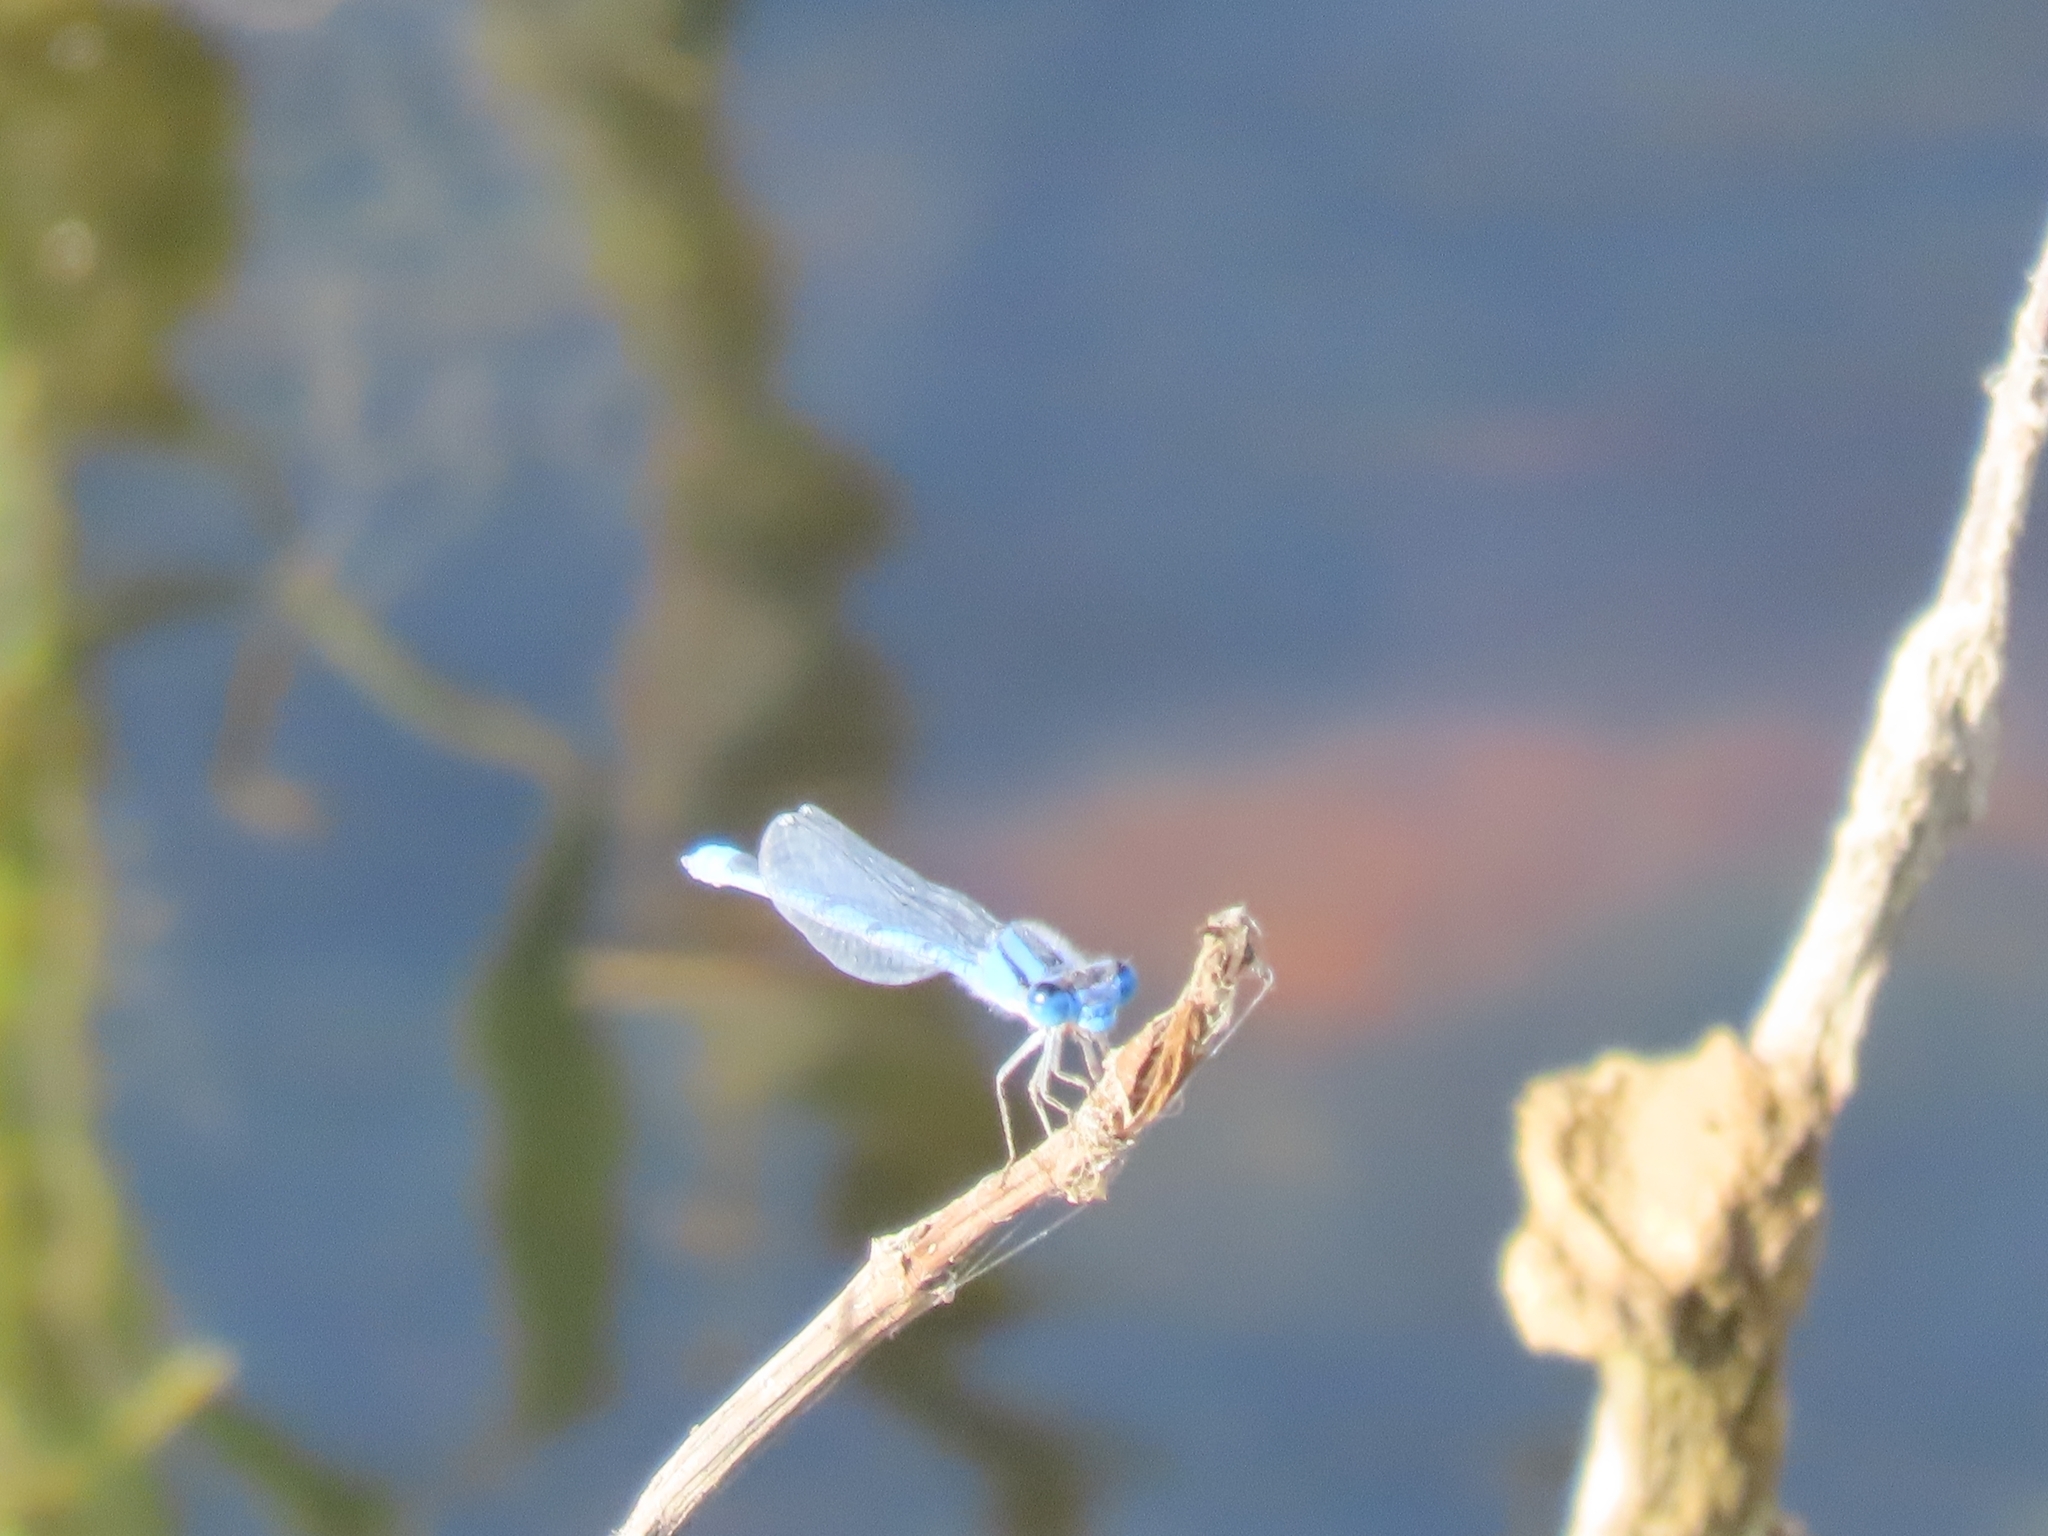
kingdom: Animalia
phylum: Arthropoda
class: Insecta
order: Odonata
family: Coenagrionidae
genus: Enallagma
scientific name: Enallagma civile
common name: Damselfly
